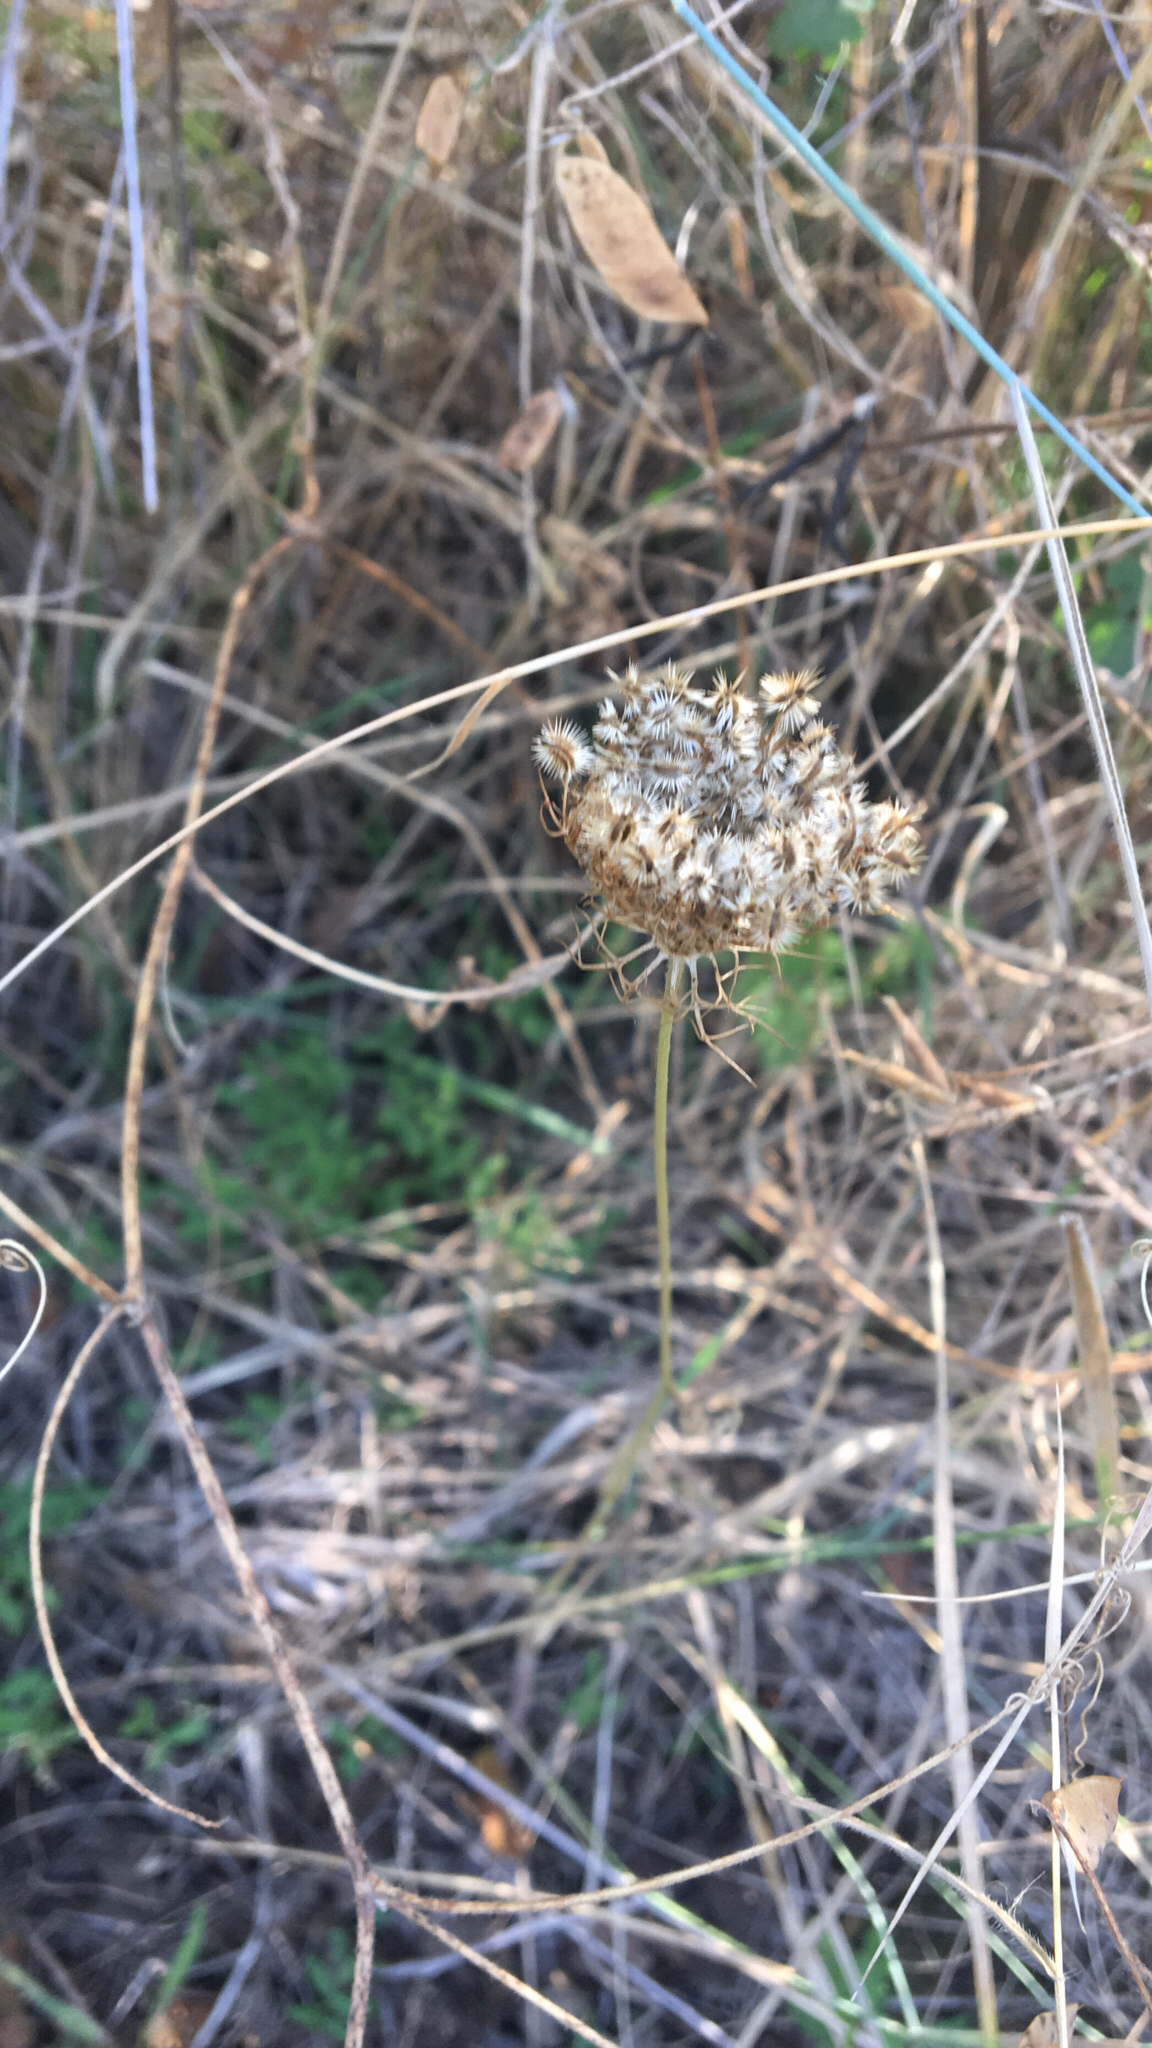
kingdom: Plantae
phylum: Tracheophyta
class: Magnoliopsida
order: Apiales
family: Apiaceae
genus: Daucus
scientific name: Daucus carota
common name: Wild carrot
